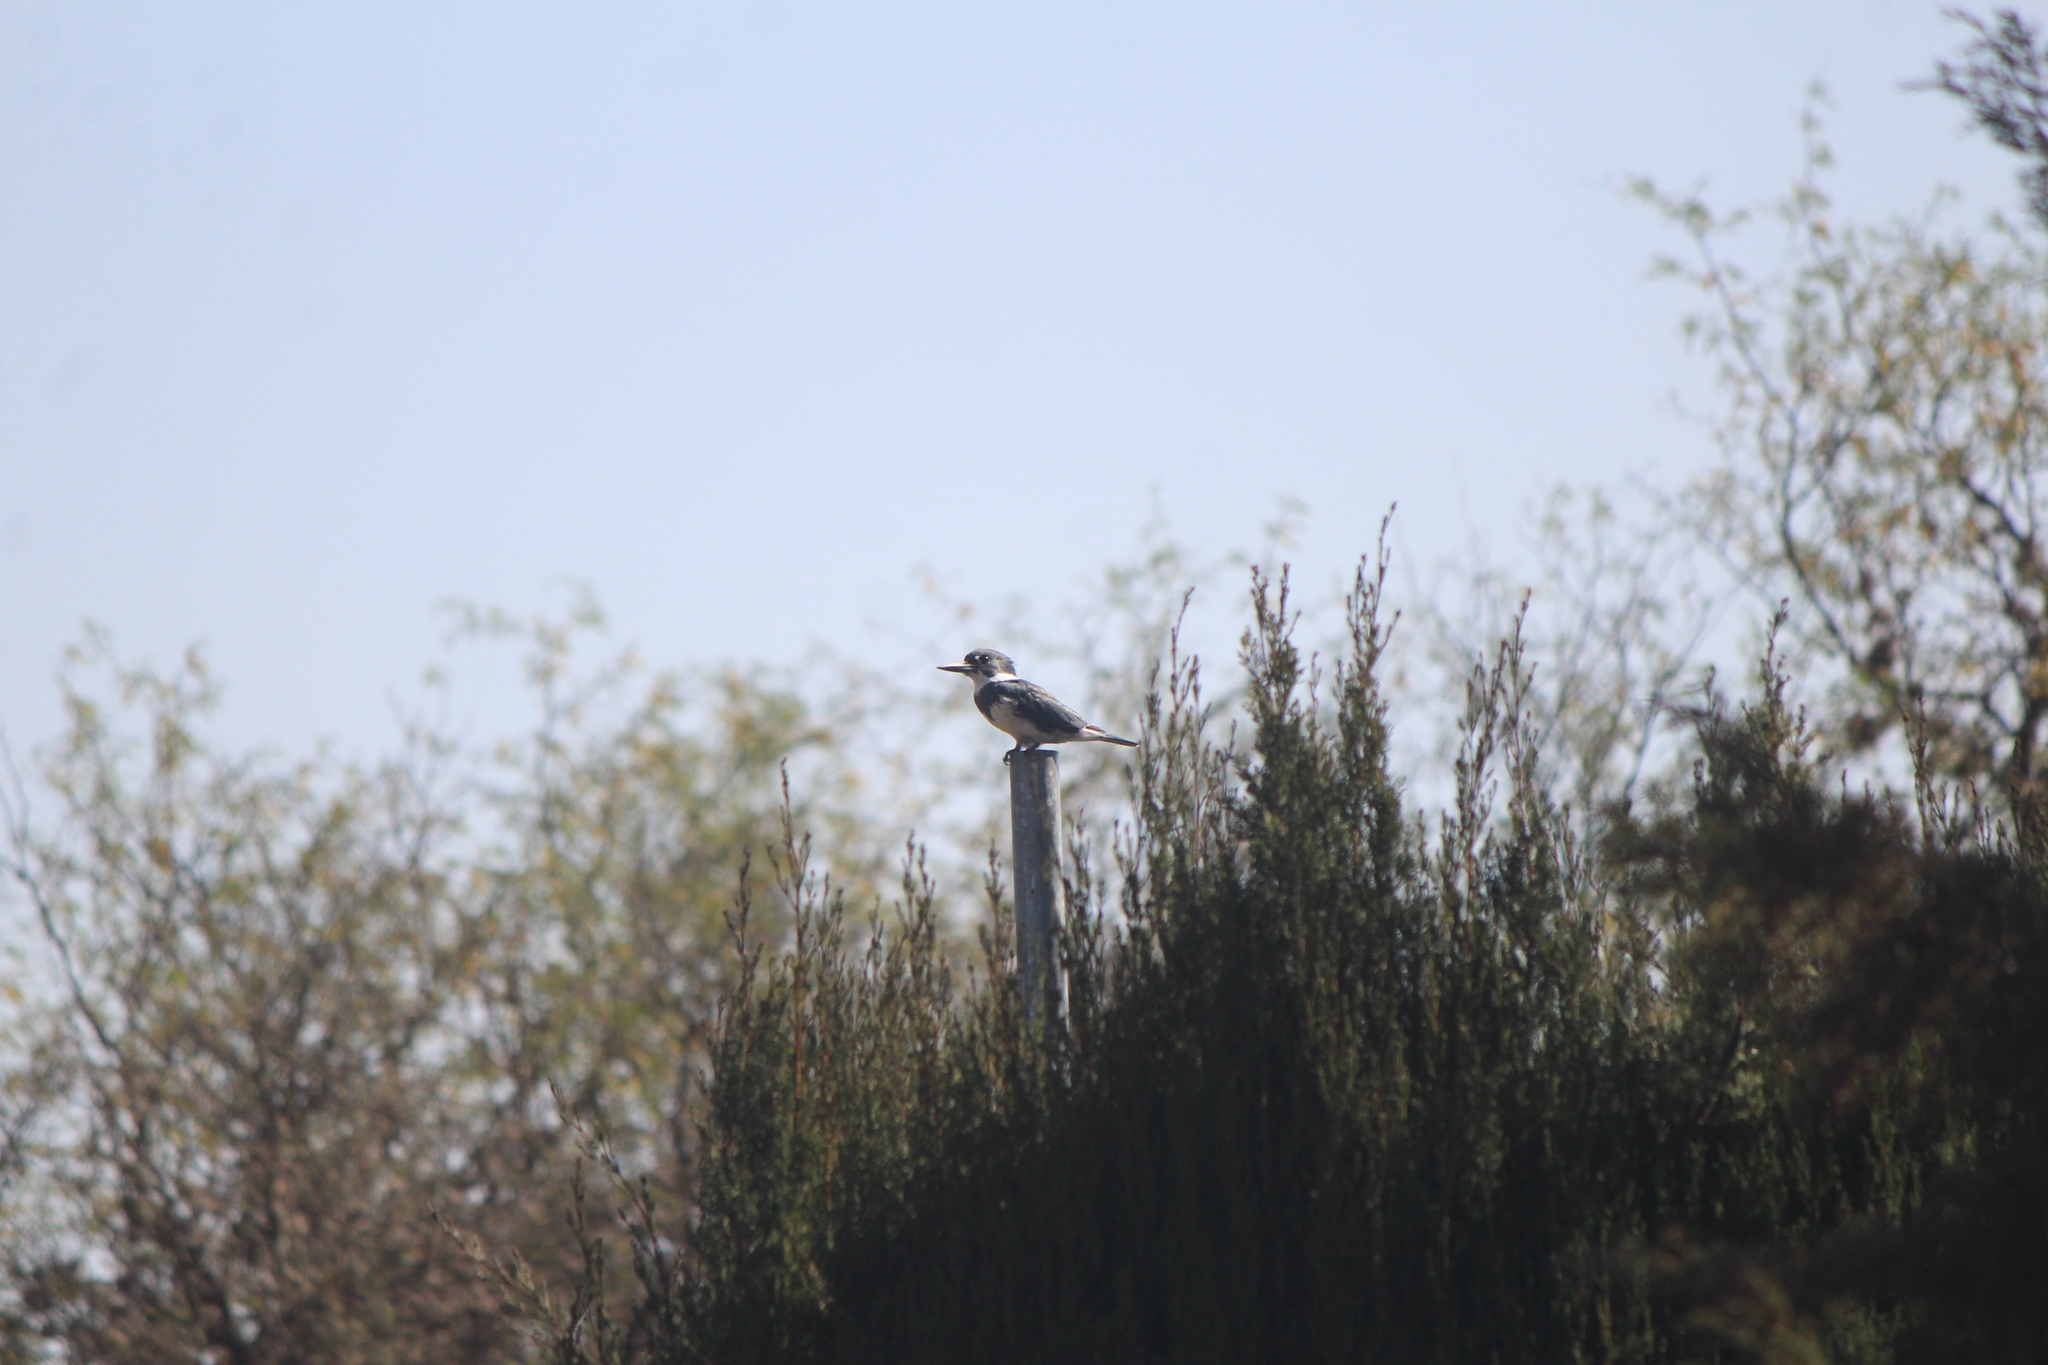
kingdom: Animalia
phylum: Chordata
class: Aves
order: Coraciiformes
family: Alcedinidae
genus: Megaceryle
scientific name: Megaceryle alcyon
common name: Belted kingfisher
